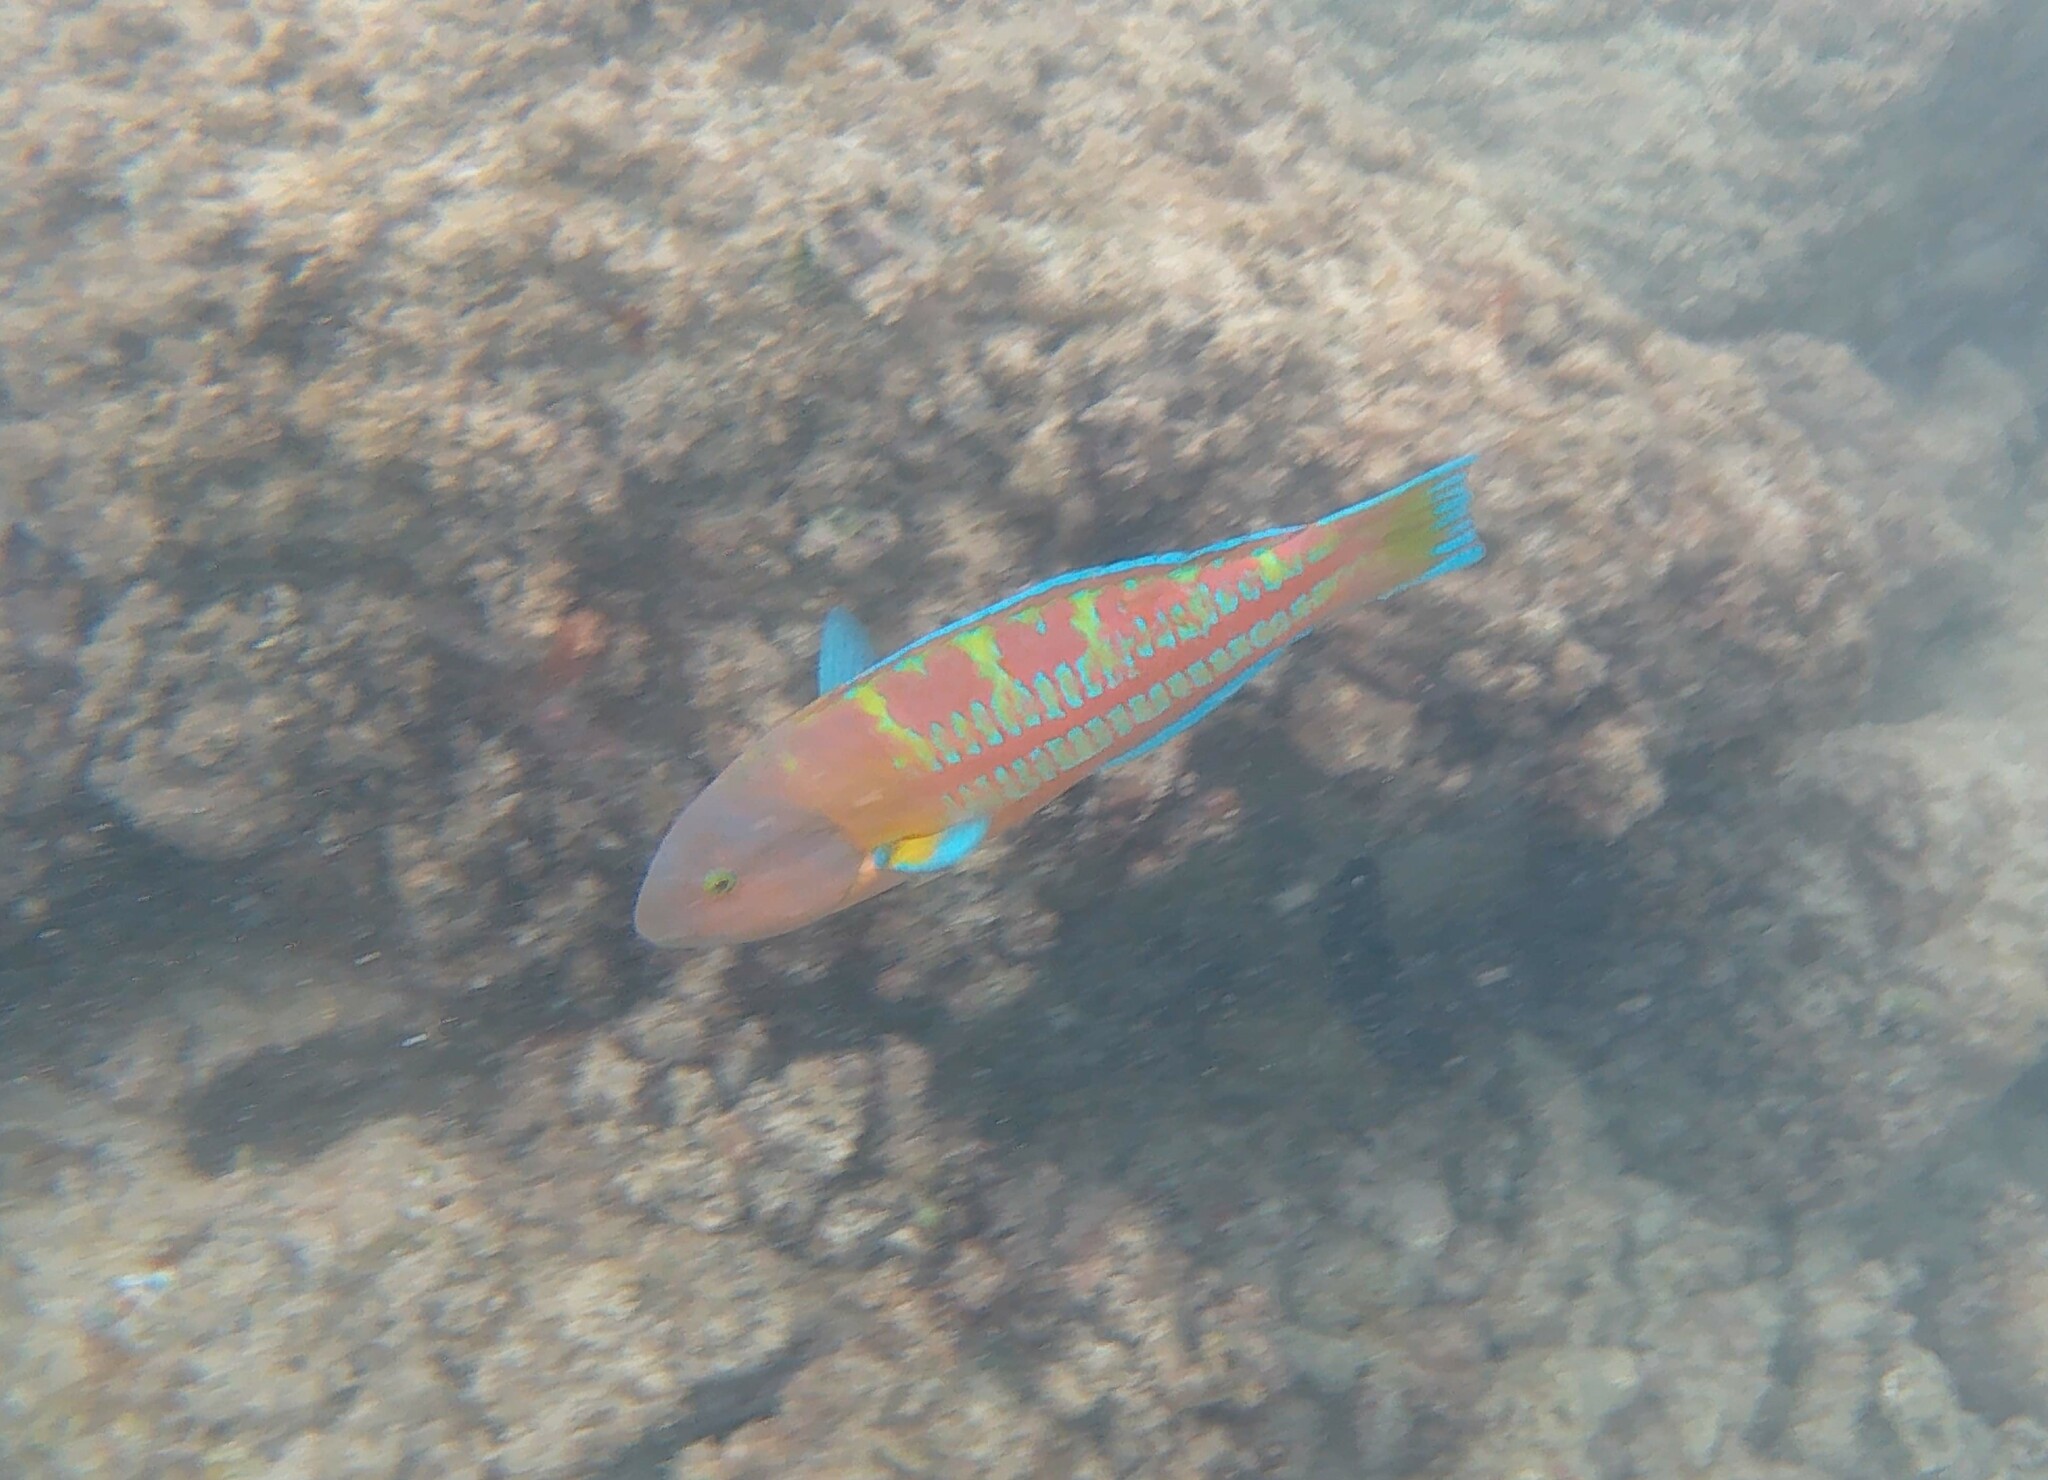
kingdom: Animalia
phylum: Chordata
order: Perciformes
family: Labridae
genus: Thalassoma
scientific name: Thalassoma trilobatum
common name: Christmas wrasse
